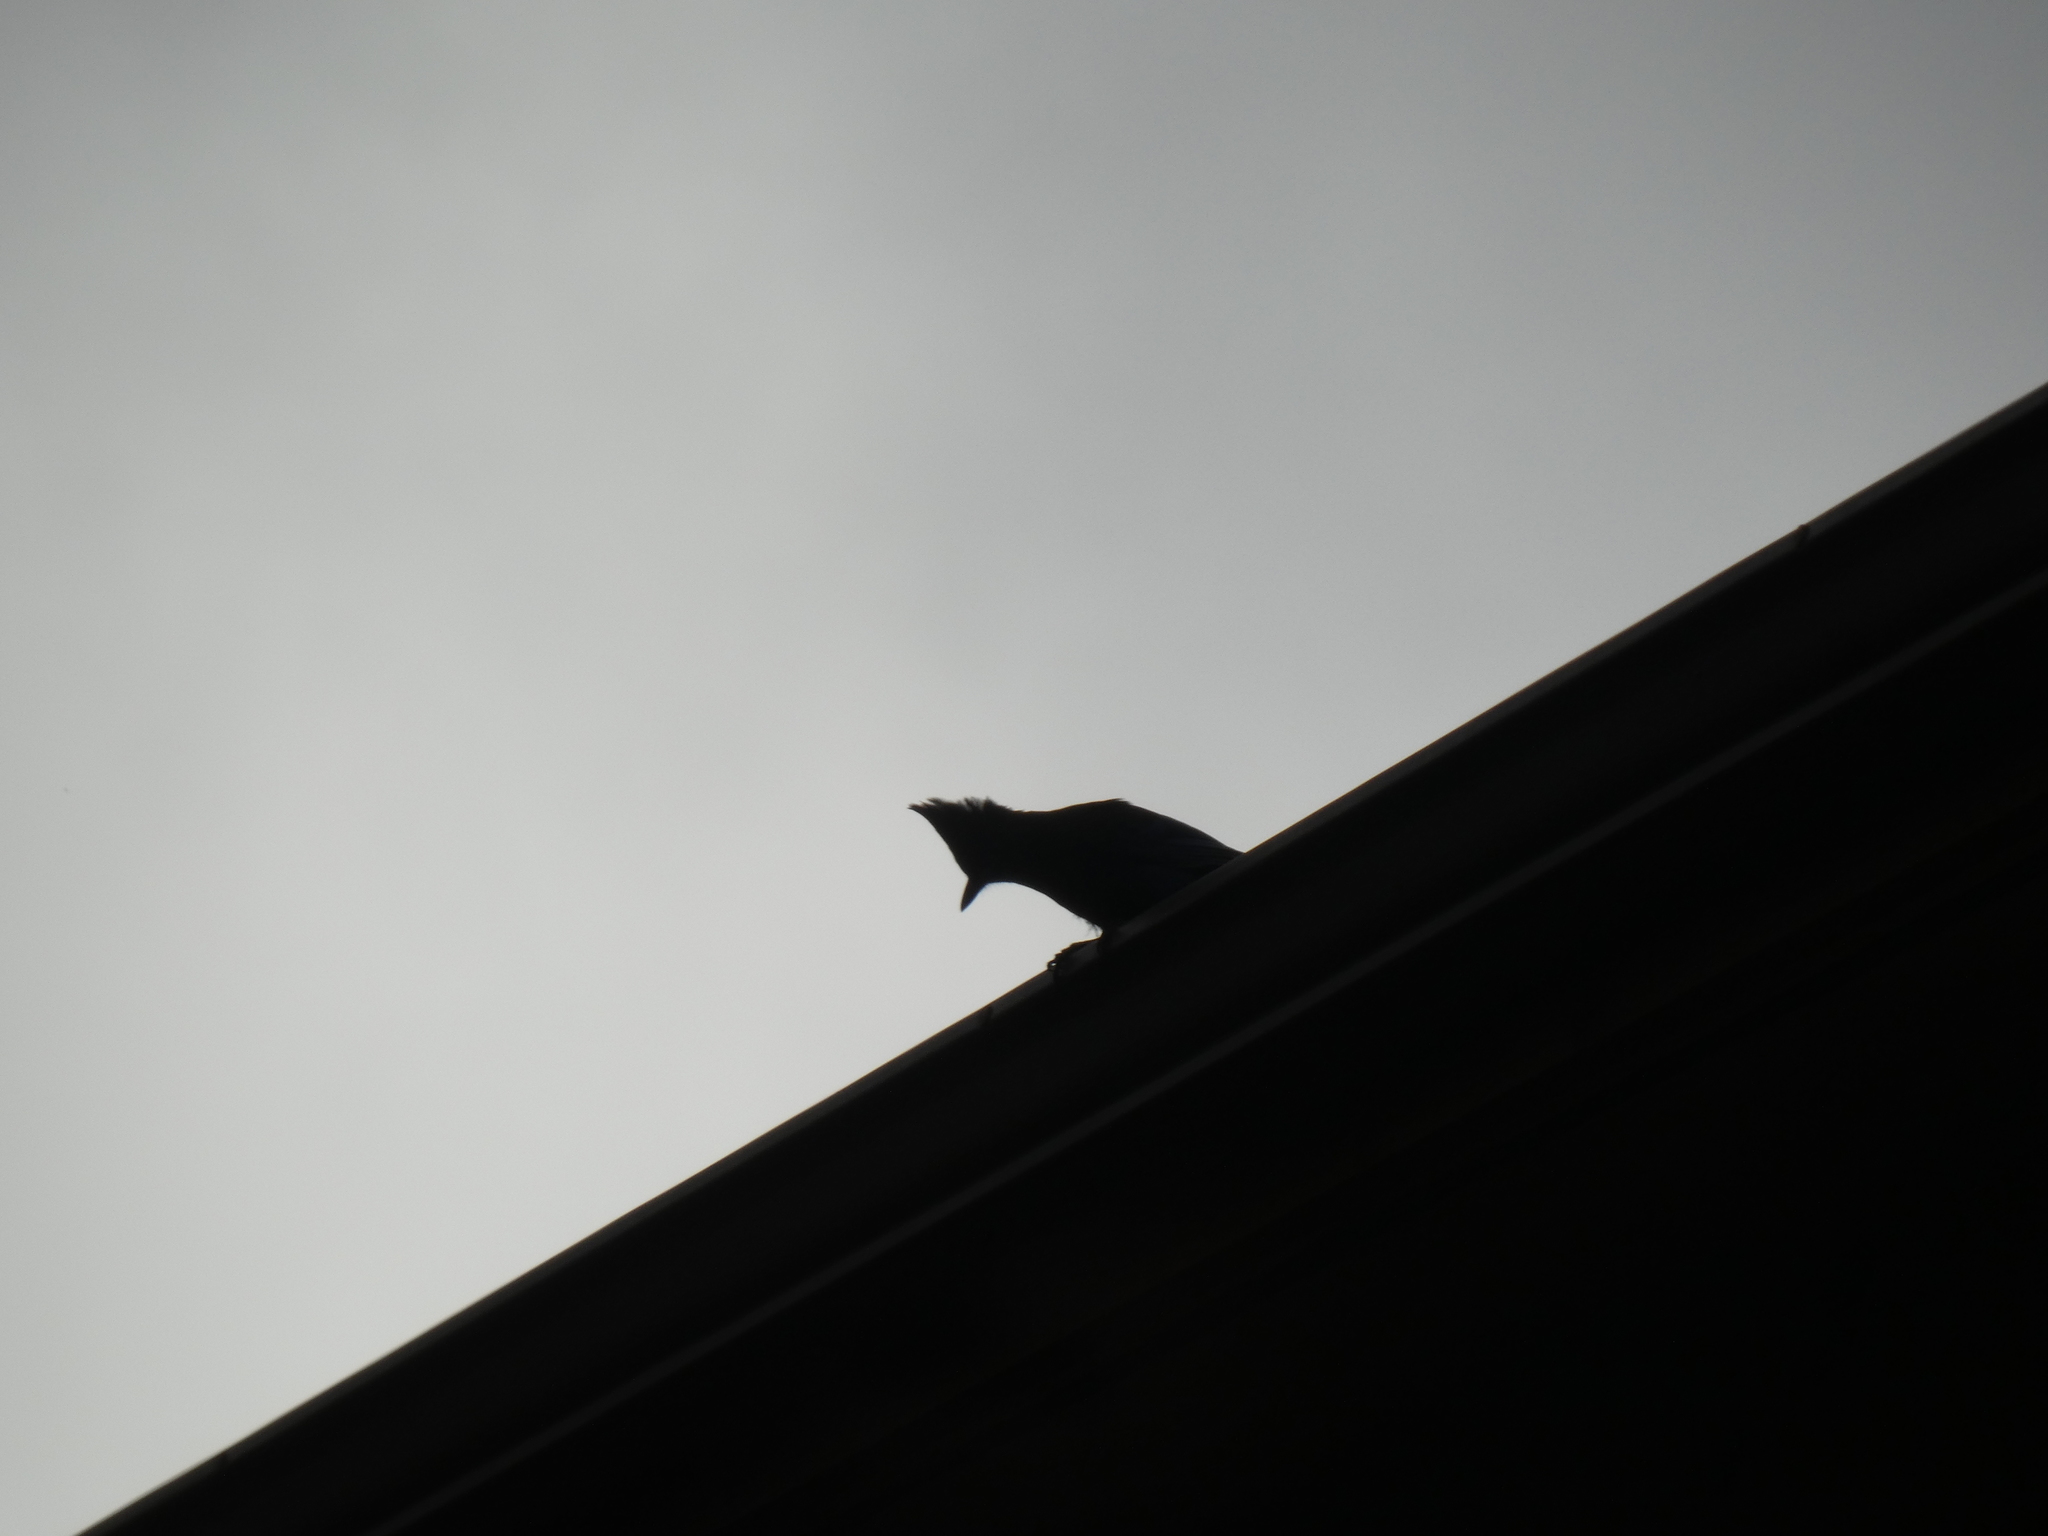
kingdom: Animalia
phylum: Chordata
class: Aves
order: Passeriformes
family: Corvidae
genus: Cyanocitta
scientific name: Cyanocitta stelleri
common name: Steller's jay
